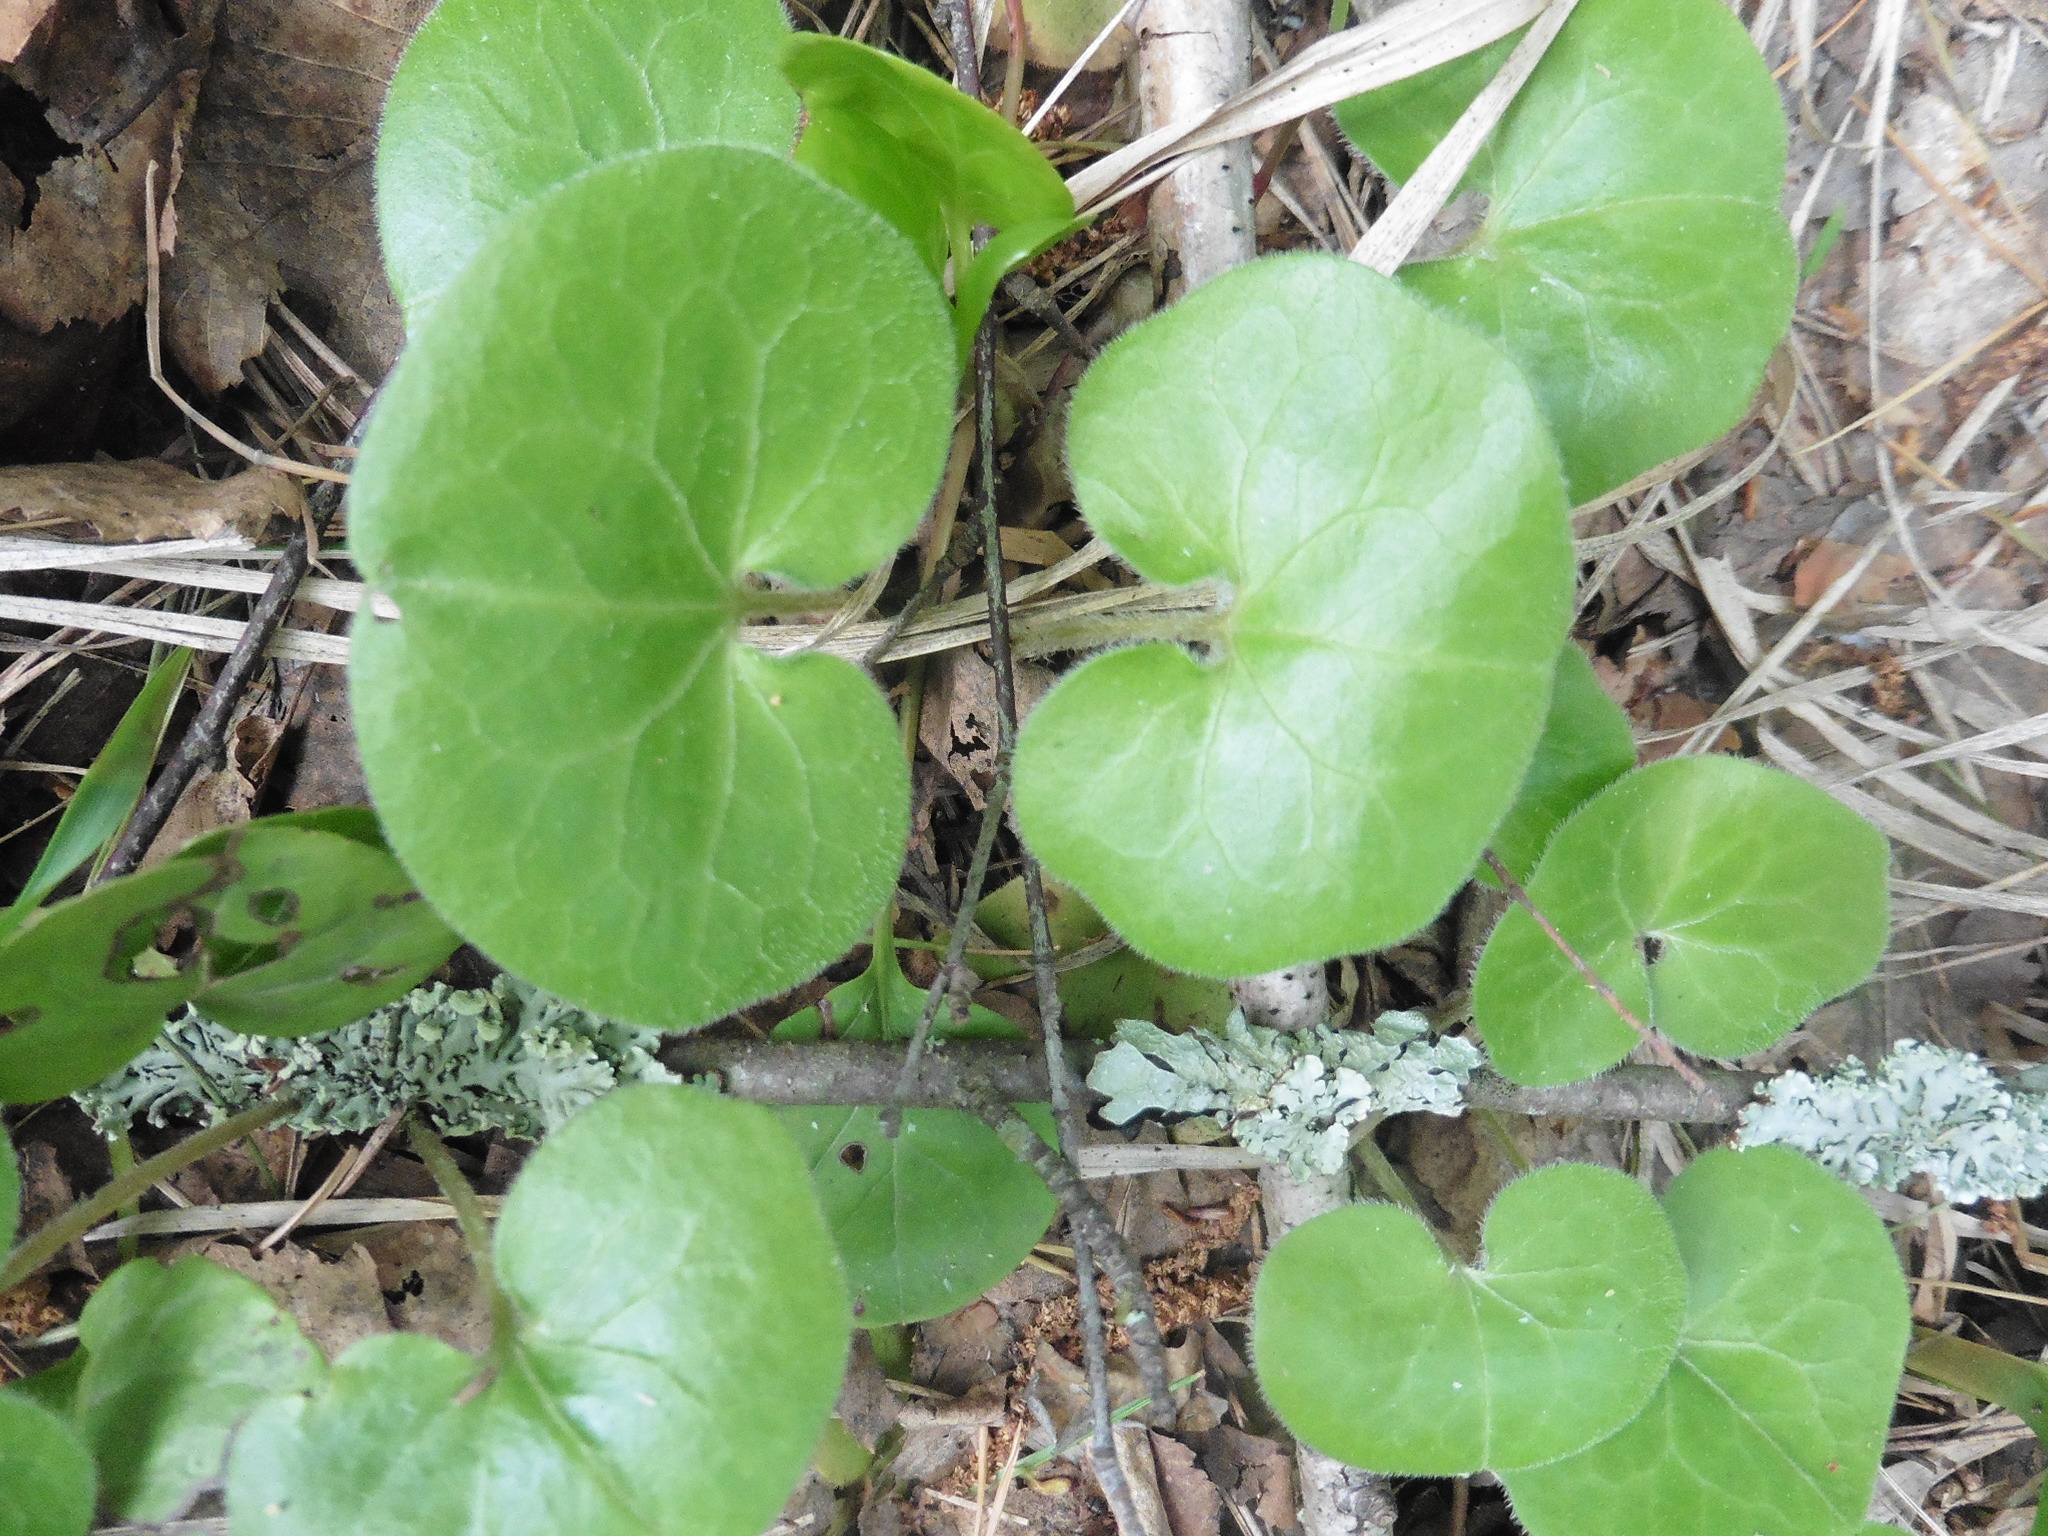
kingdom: Plantae
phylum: Tracheophyta
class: Magnoliopsida
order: Piperales
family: Aristolochiaceae
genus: Asarum
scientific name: Asarum europaeum
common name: Asarabacca
